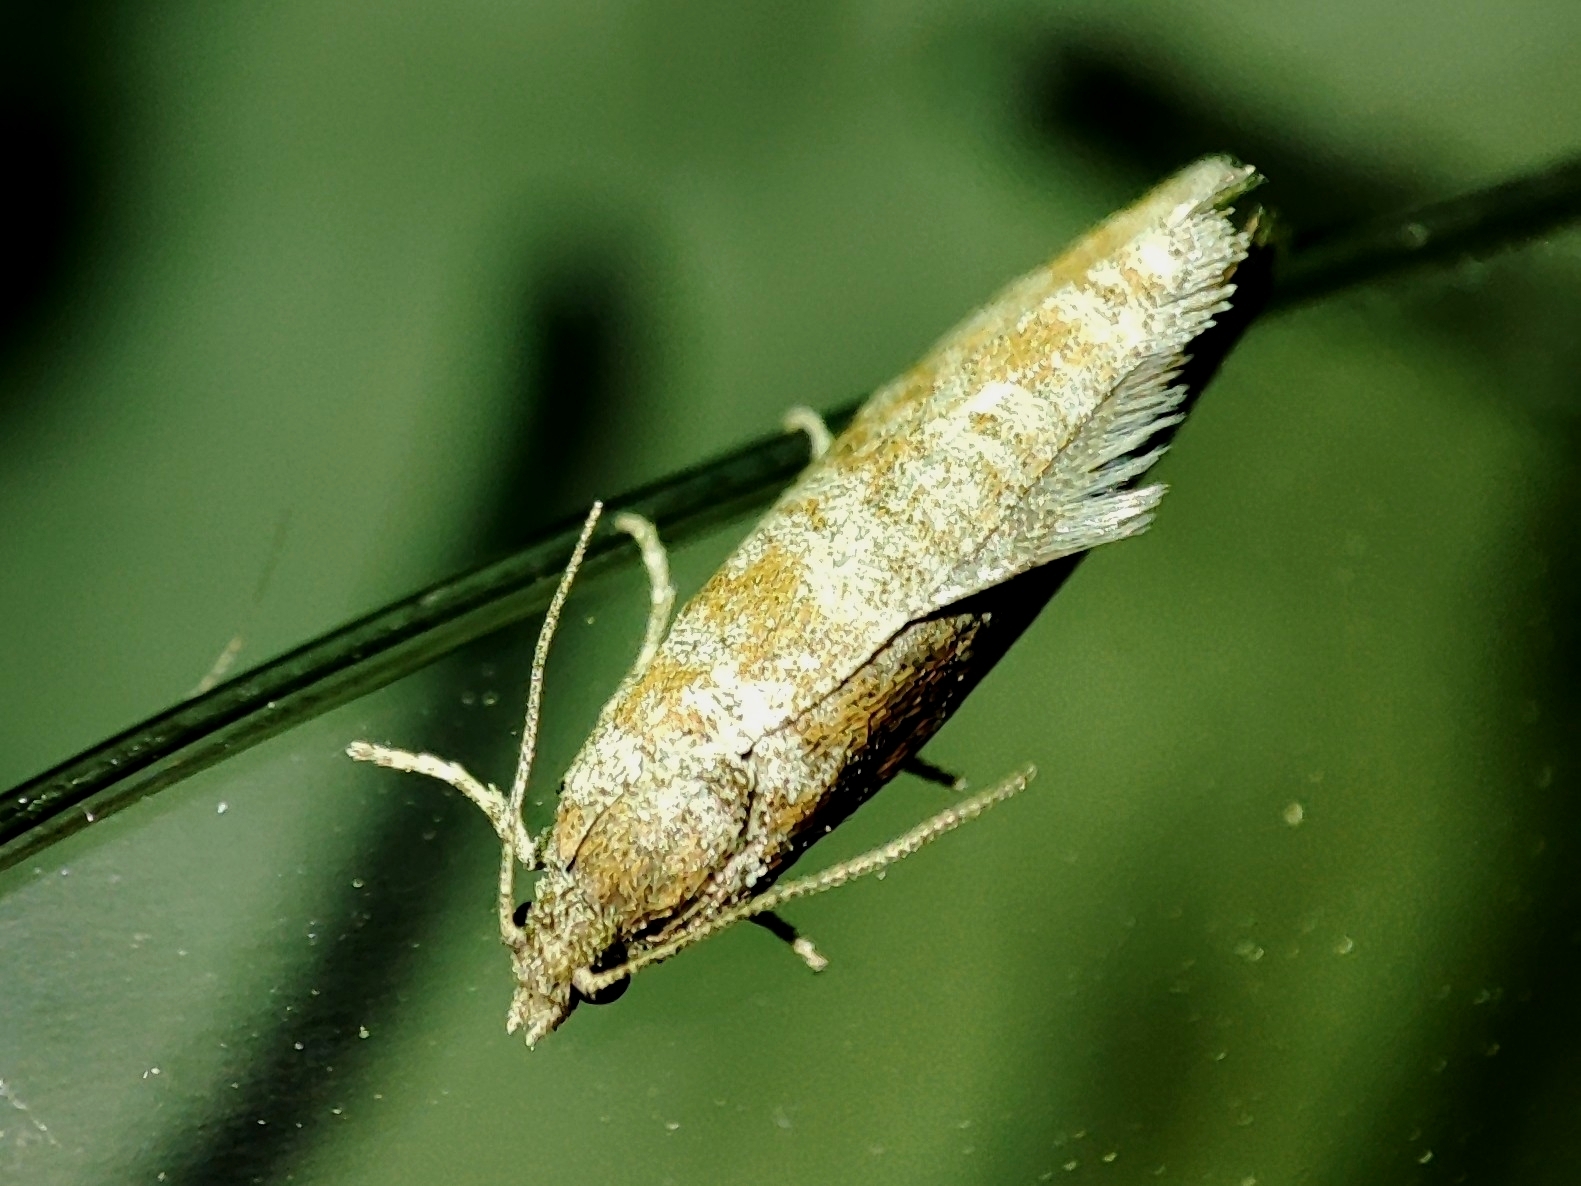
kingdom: Animalia
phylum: Arthropoda
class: Insecta
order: Lepidoptera
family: Tortricidae
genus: Rhyacionia
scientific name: Rhyacionia pinivorana
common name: Spotted shoot moth
